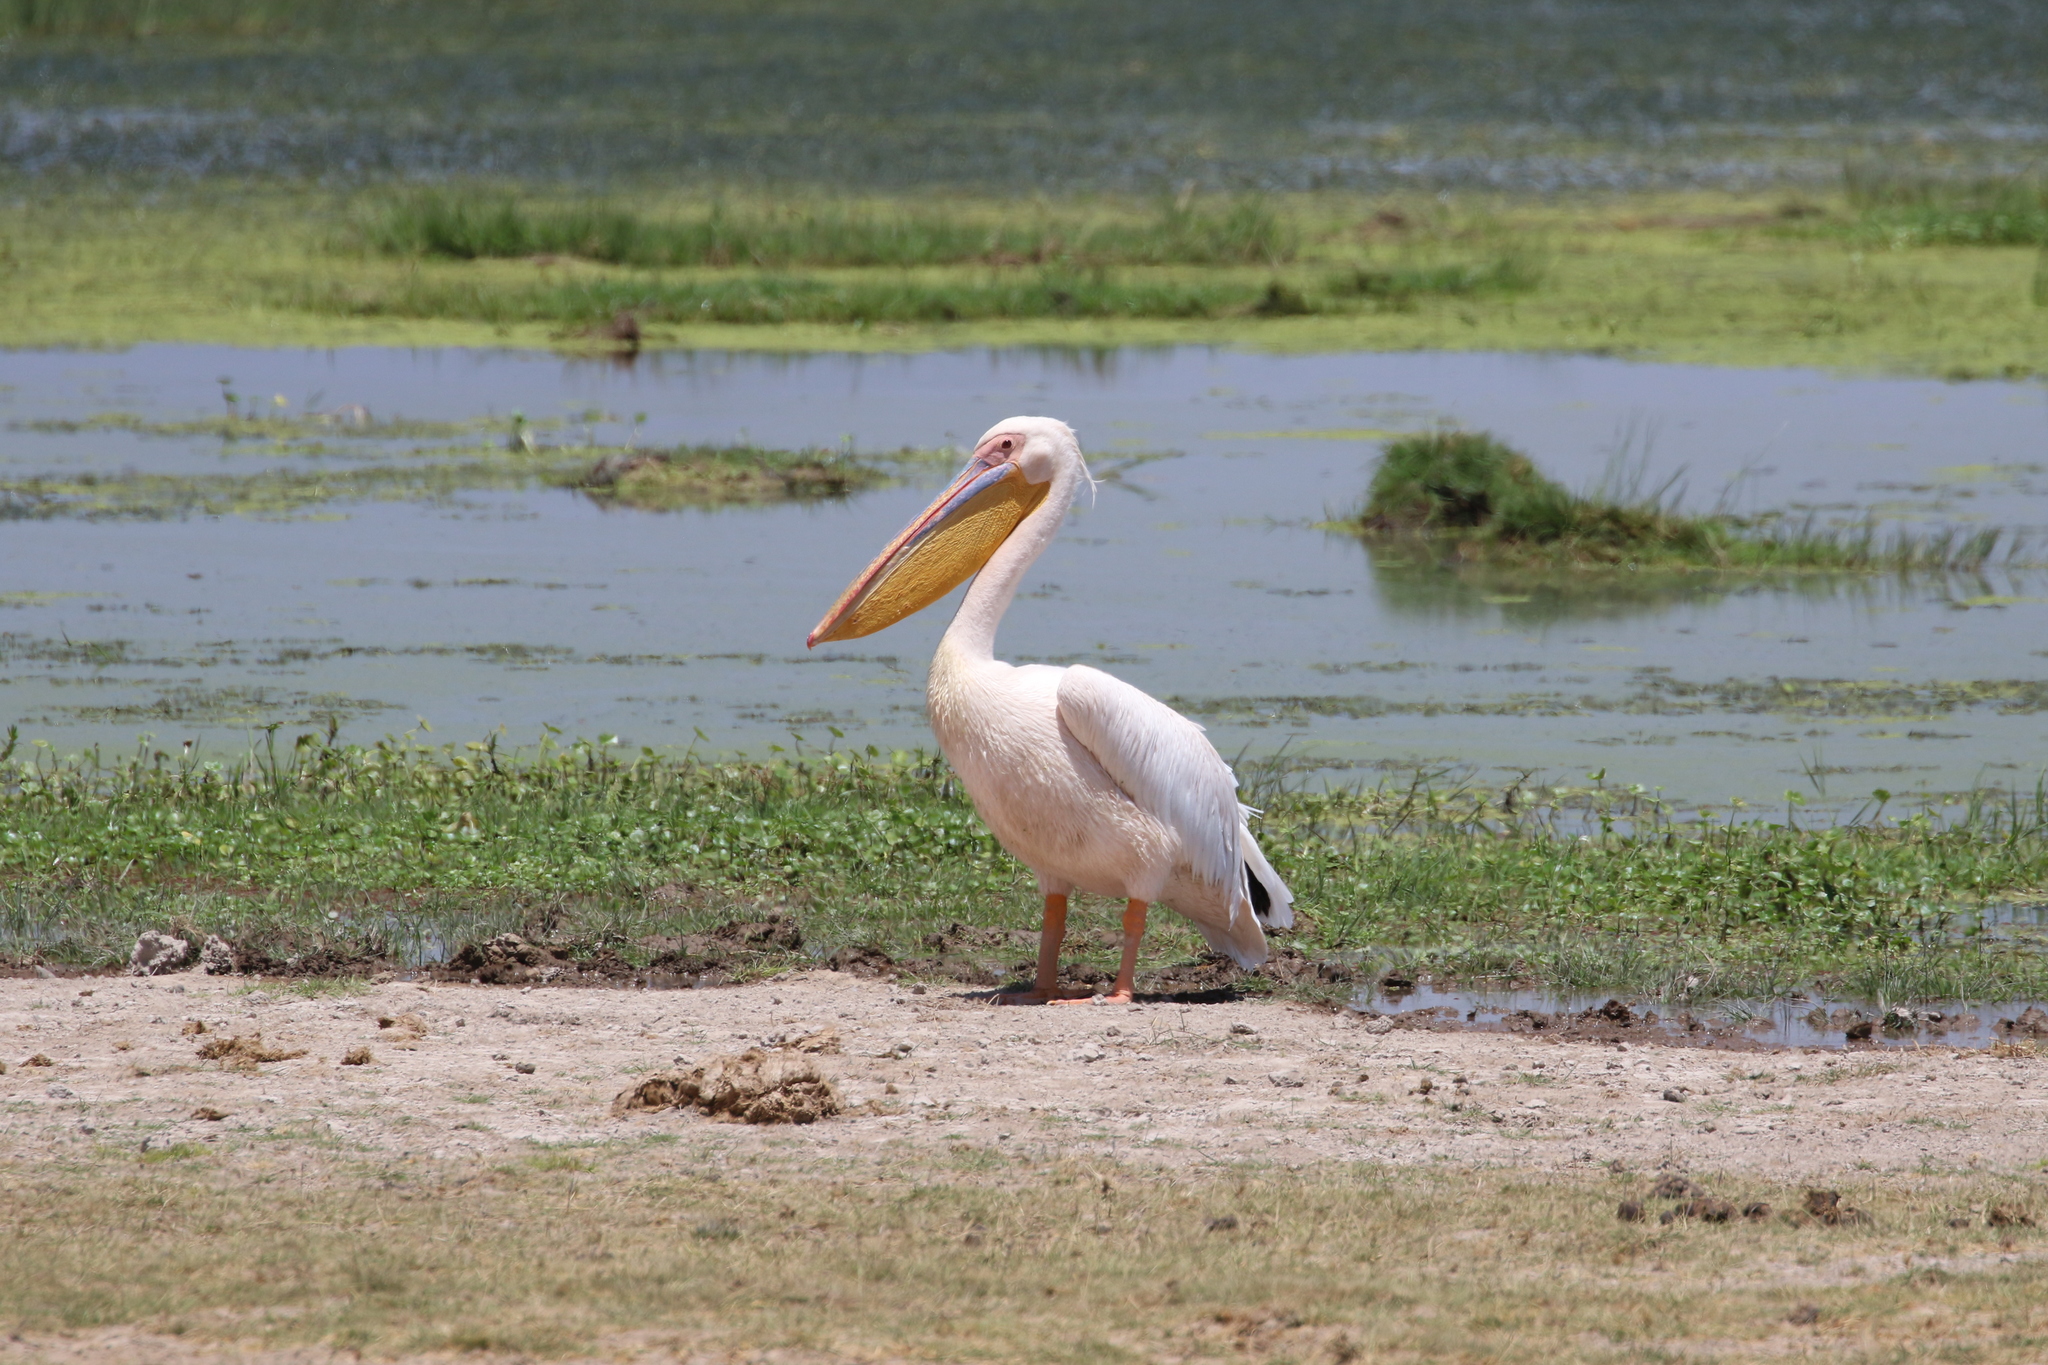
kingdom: Animalia
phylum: Chordata
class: Aves
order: Pelecaniformes
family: Pelecanidae
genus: Pelecanus
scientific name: Pelecanus onocrotalus
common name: Great white pelican
